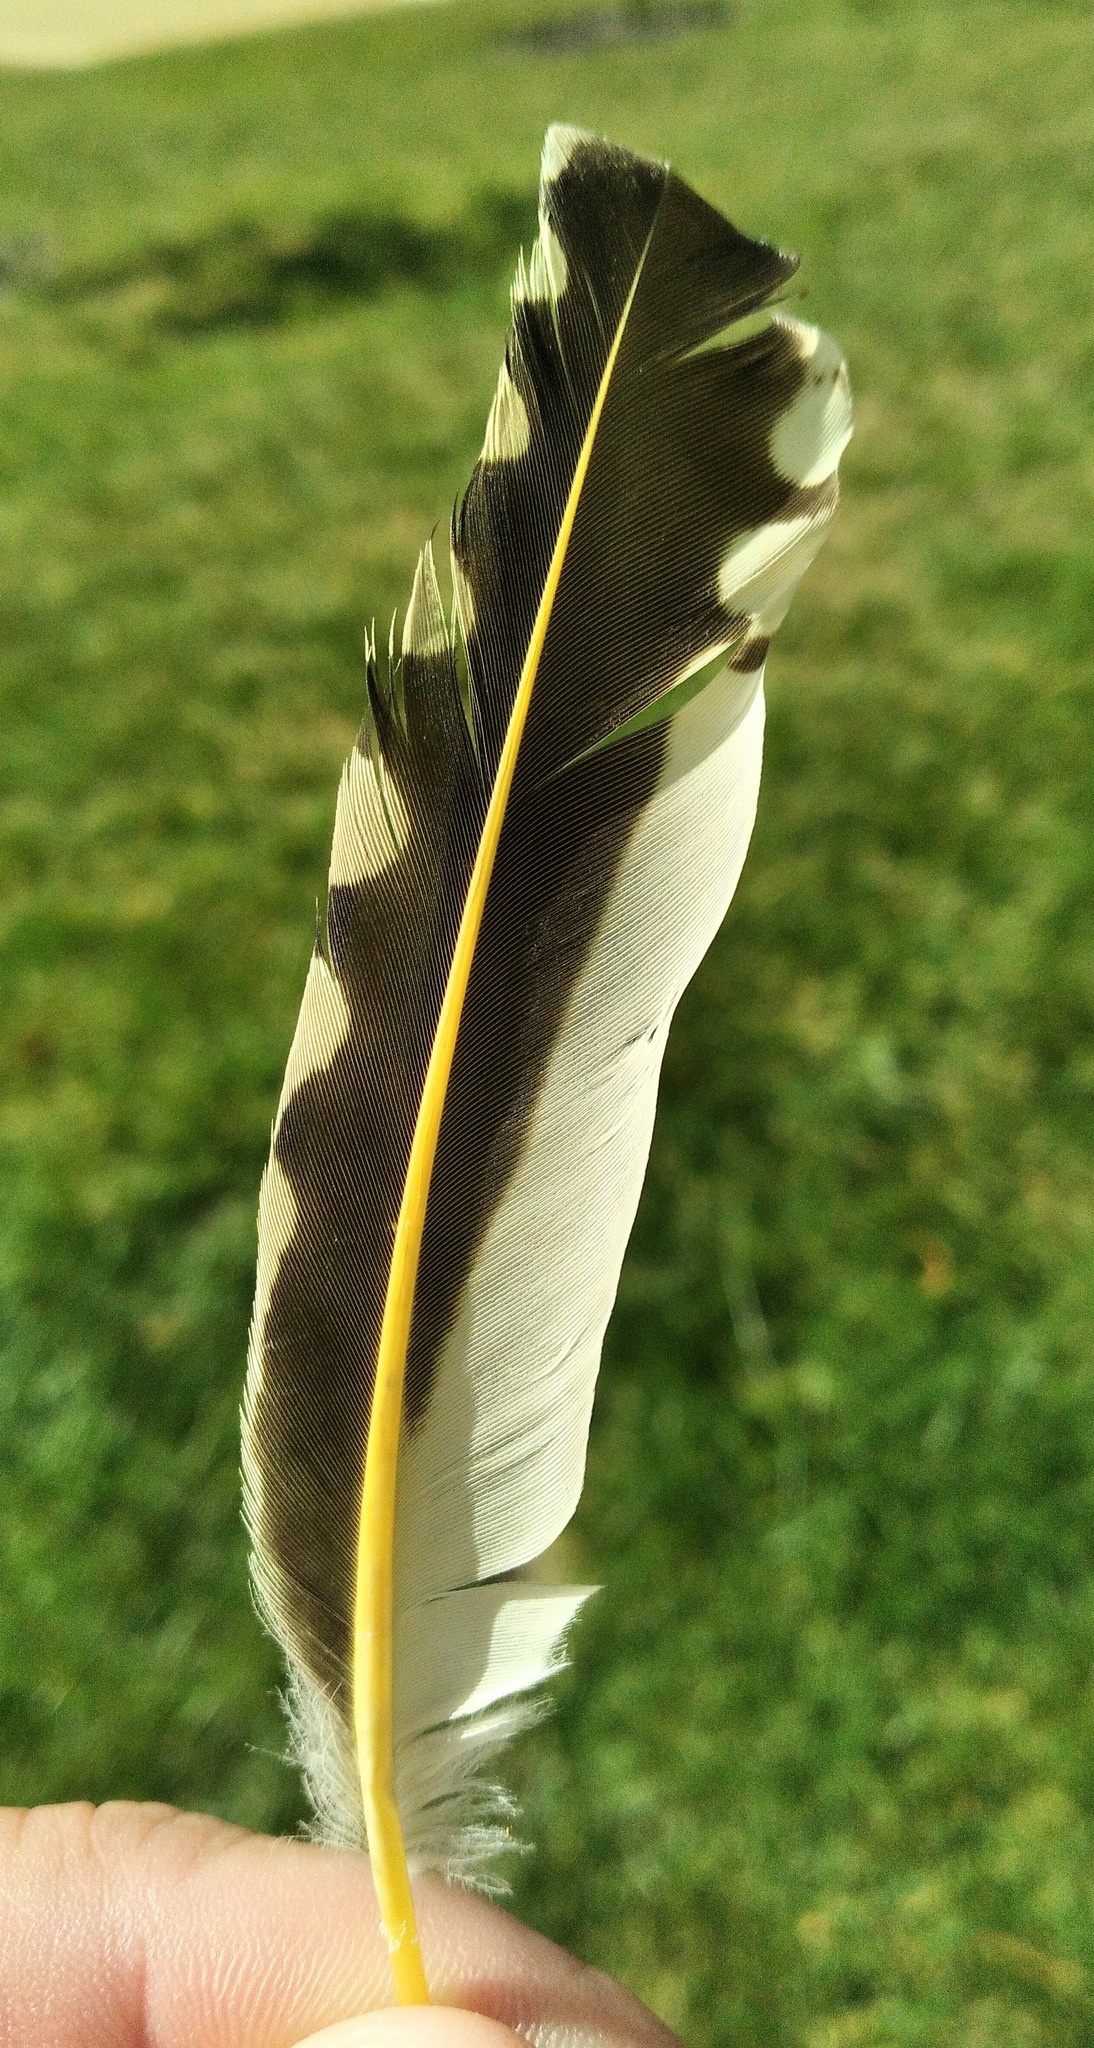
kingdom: Animalia
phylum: Chordata
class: Aves
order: Piciformes
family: Picidae
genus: Colaptes
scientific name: Colaptes auratus
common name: Northern flicker
